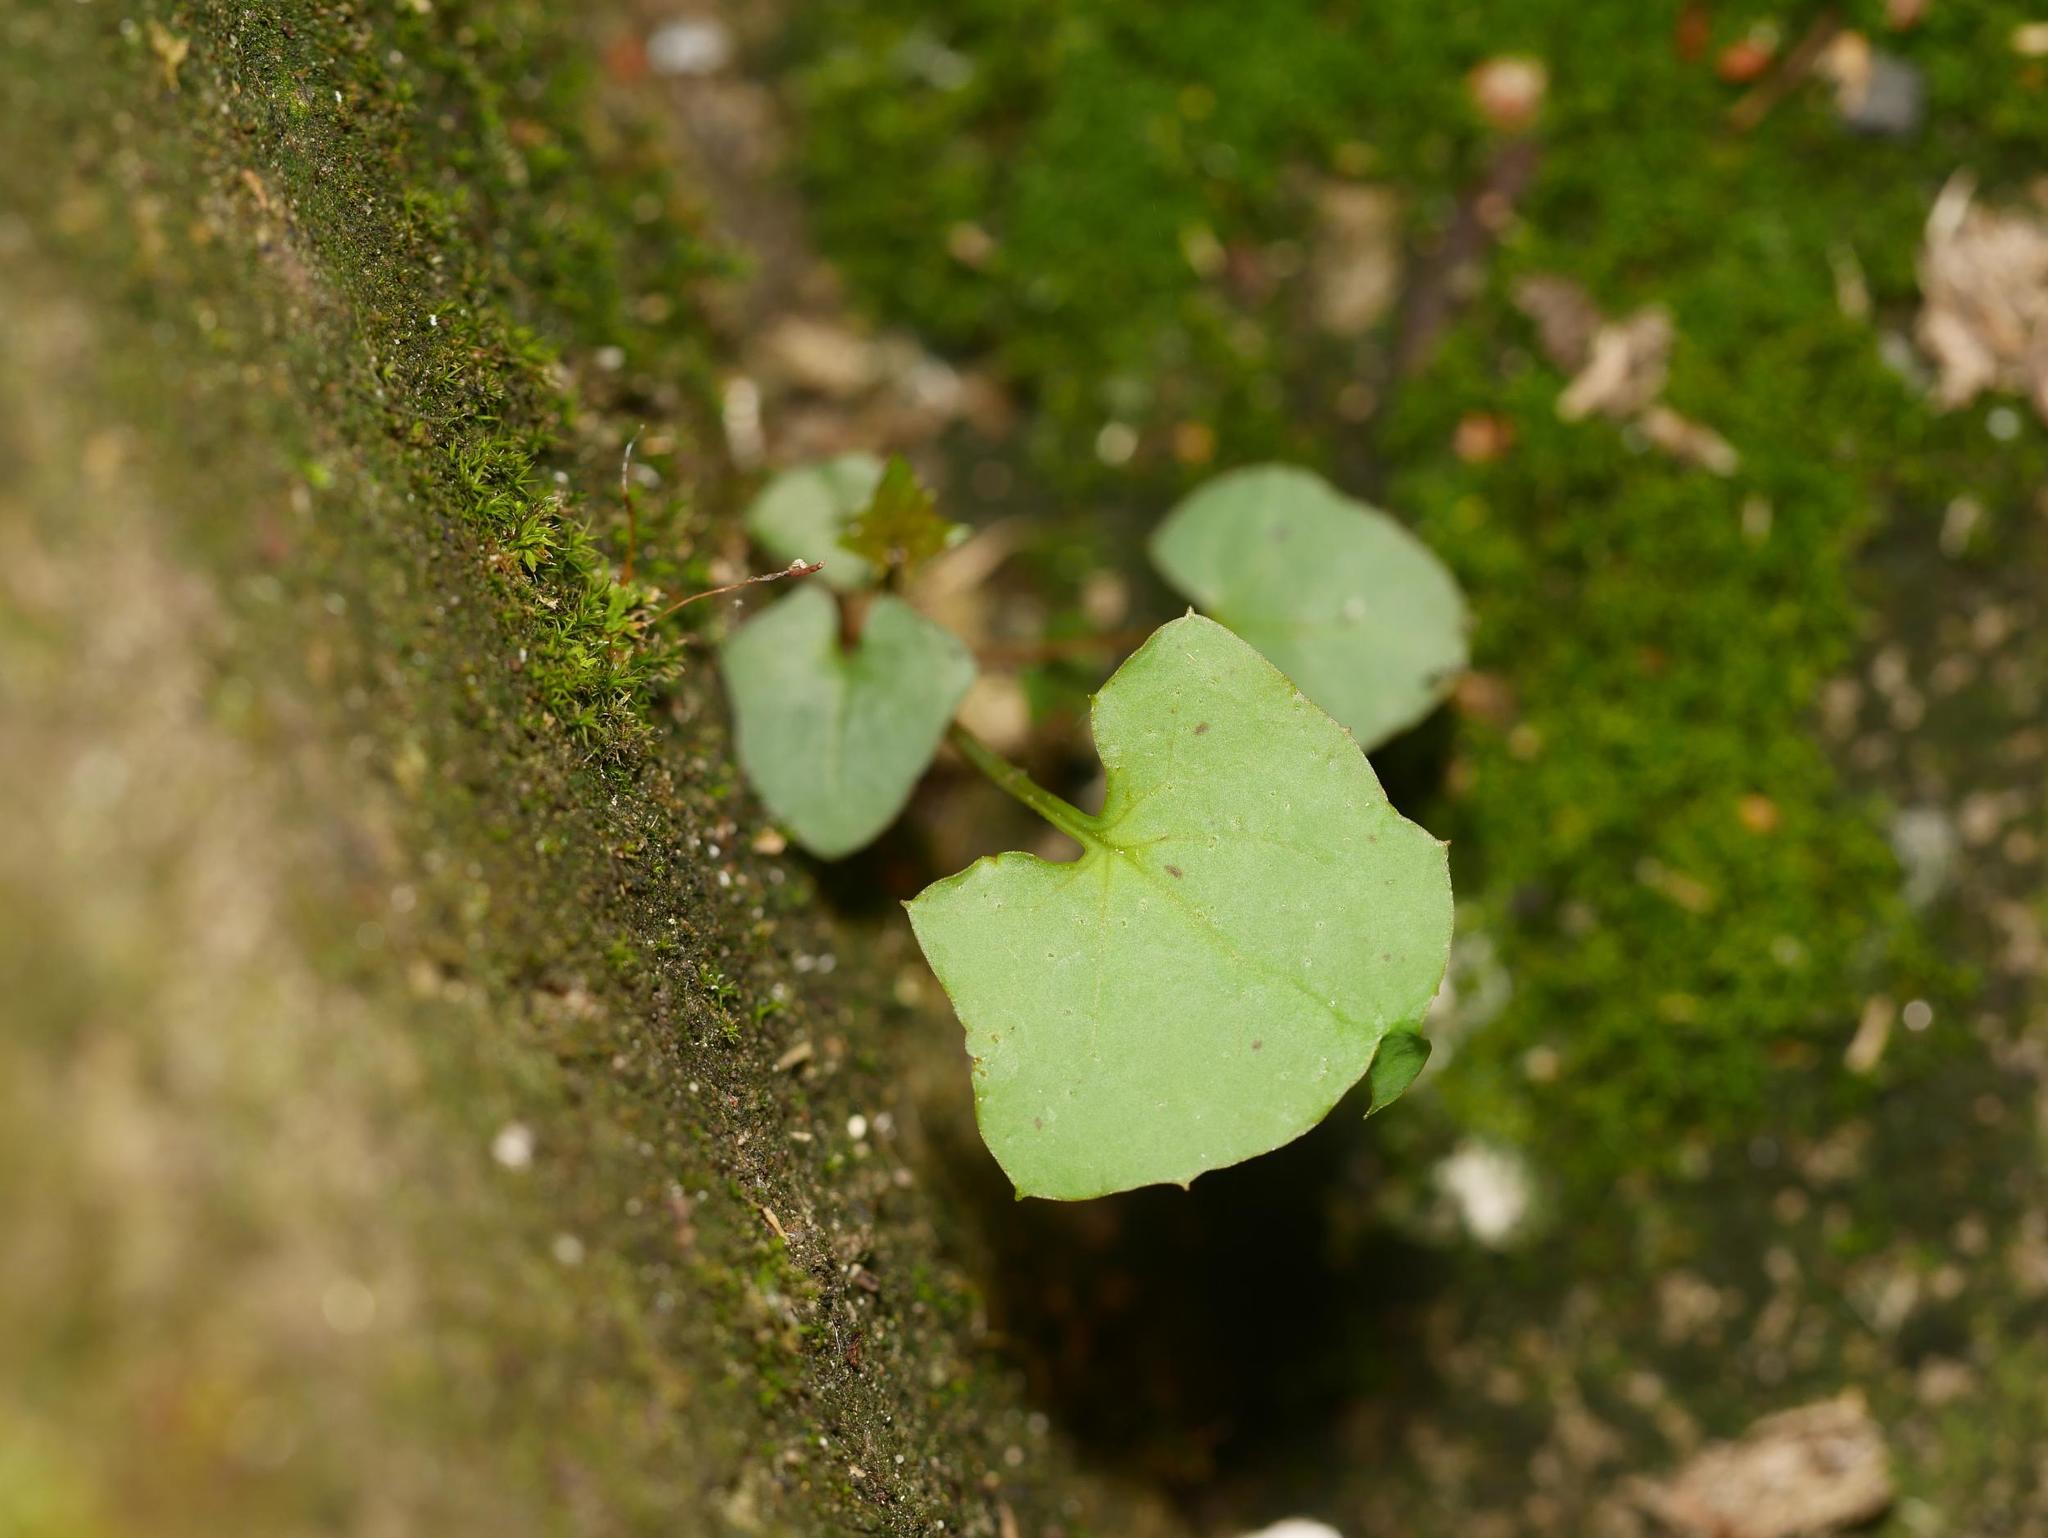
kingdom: Plantae
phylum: Tracheophyta
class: Magnoliopsida
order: Asterales
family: Asteraceae
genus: Mycelis
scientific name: Mycelis muralis
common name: Wall lettuce
